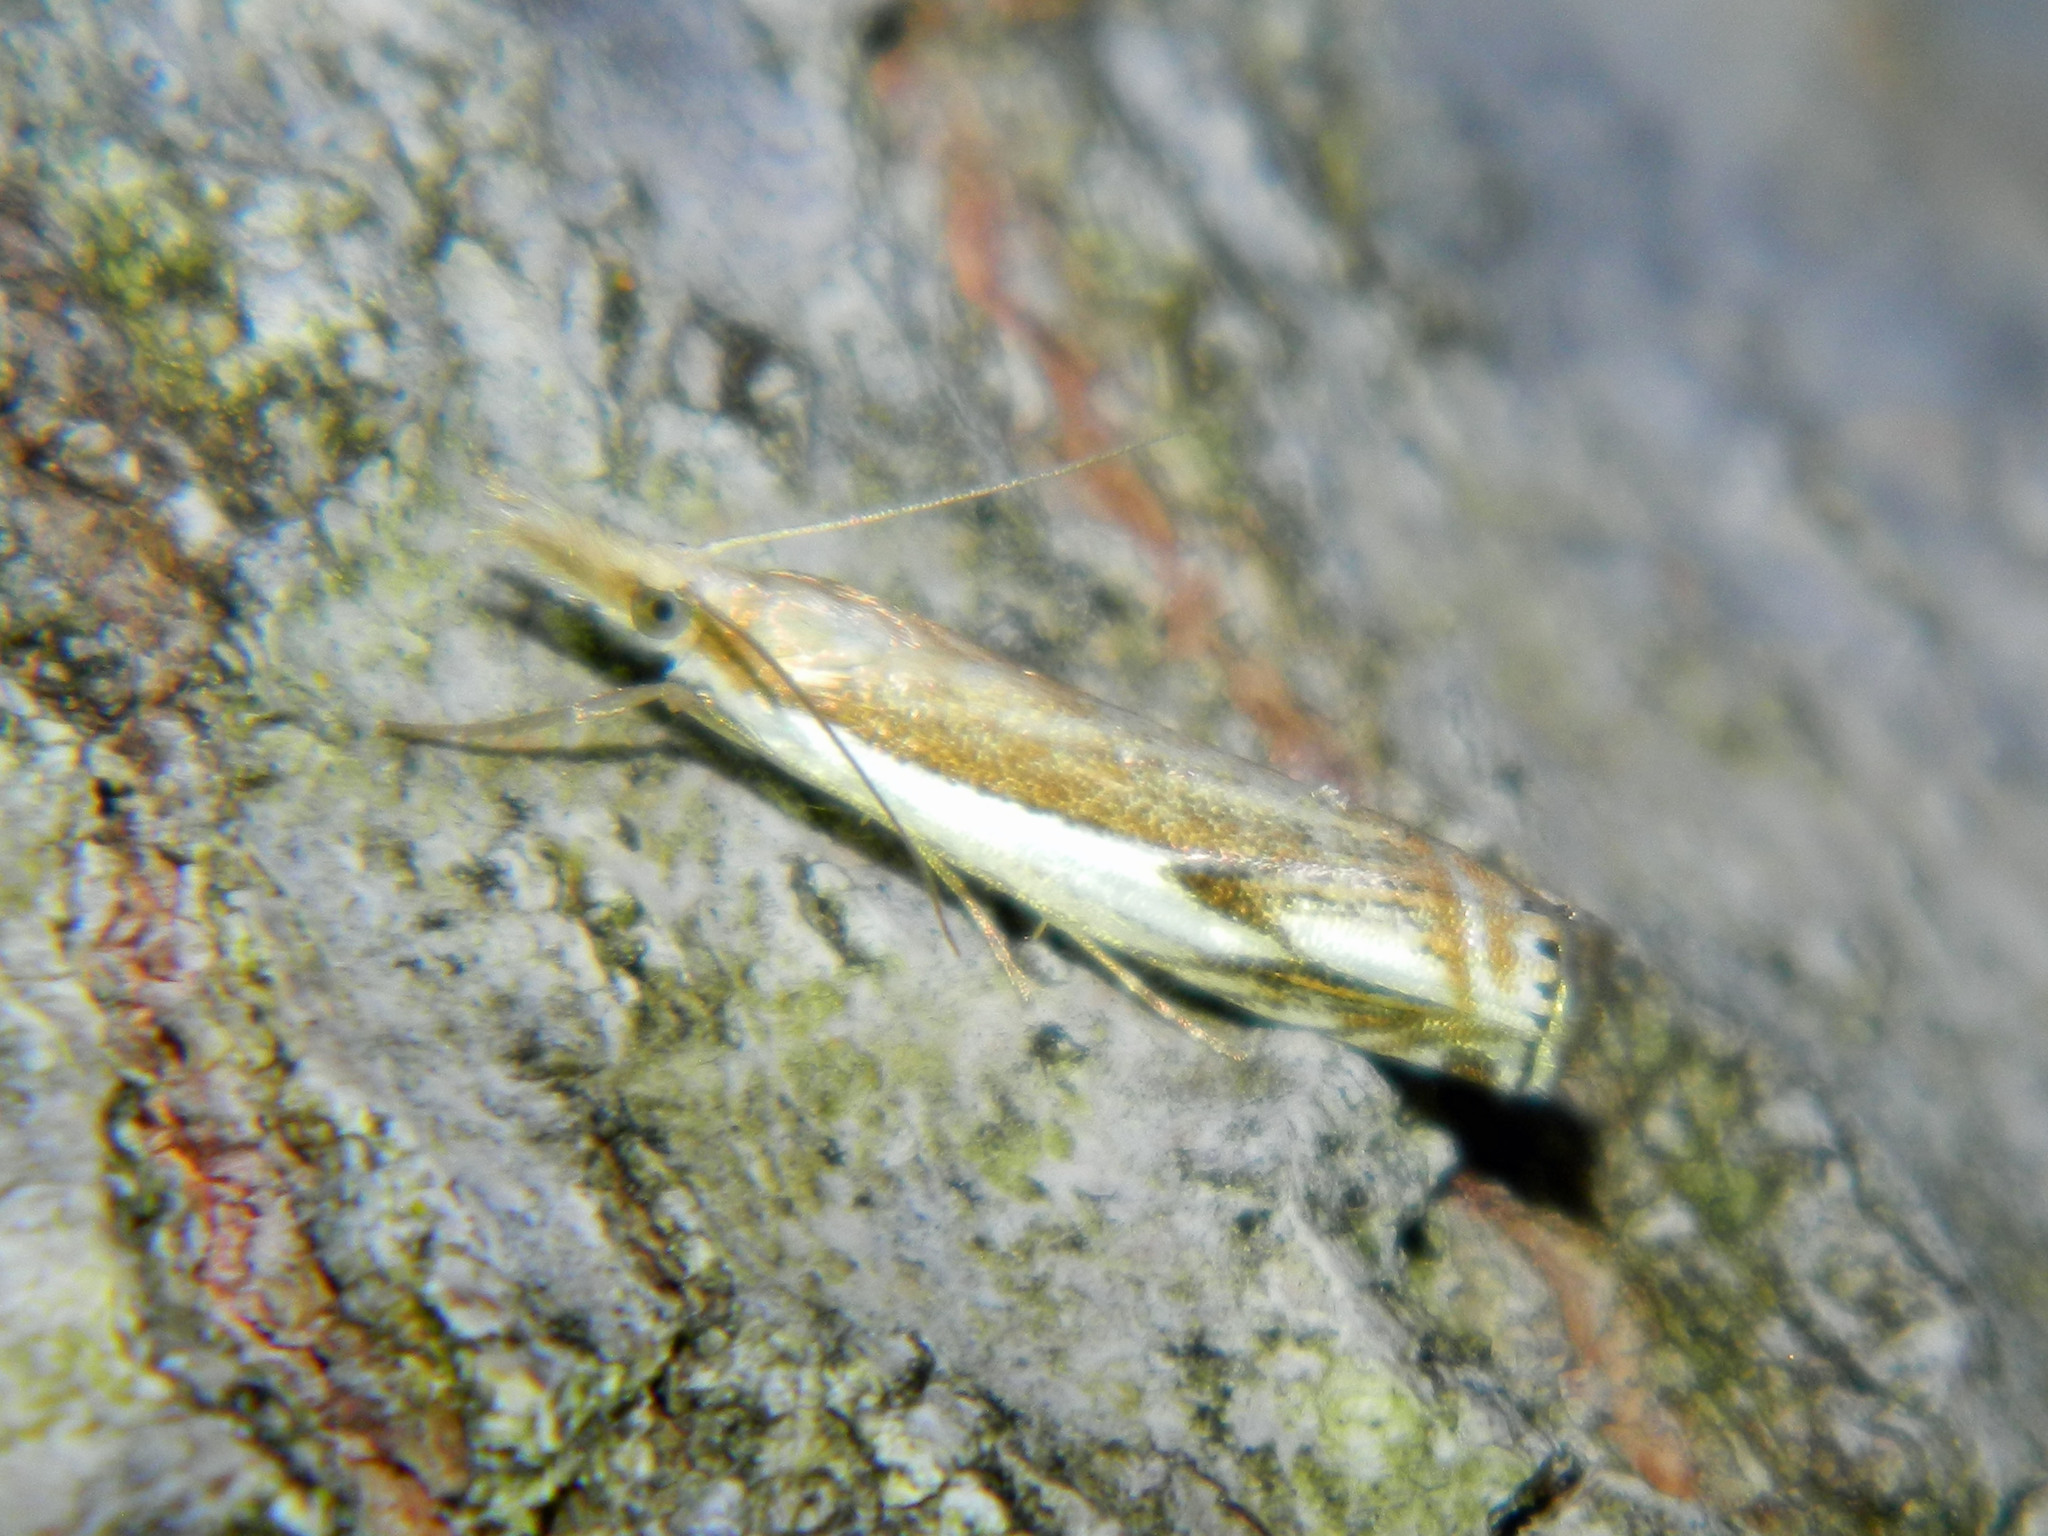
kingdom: Animalia
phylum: Arthropoda
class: Insecta
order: Lepidoptera
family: Crambidae
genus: Crambus
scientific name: Crambus agitatellus
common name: Double-banded grass-veneer
